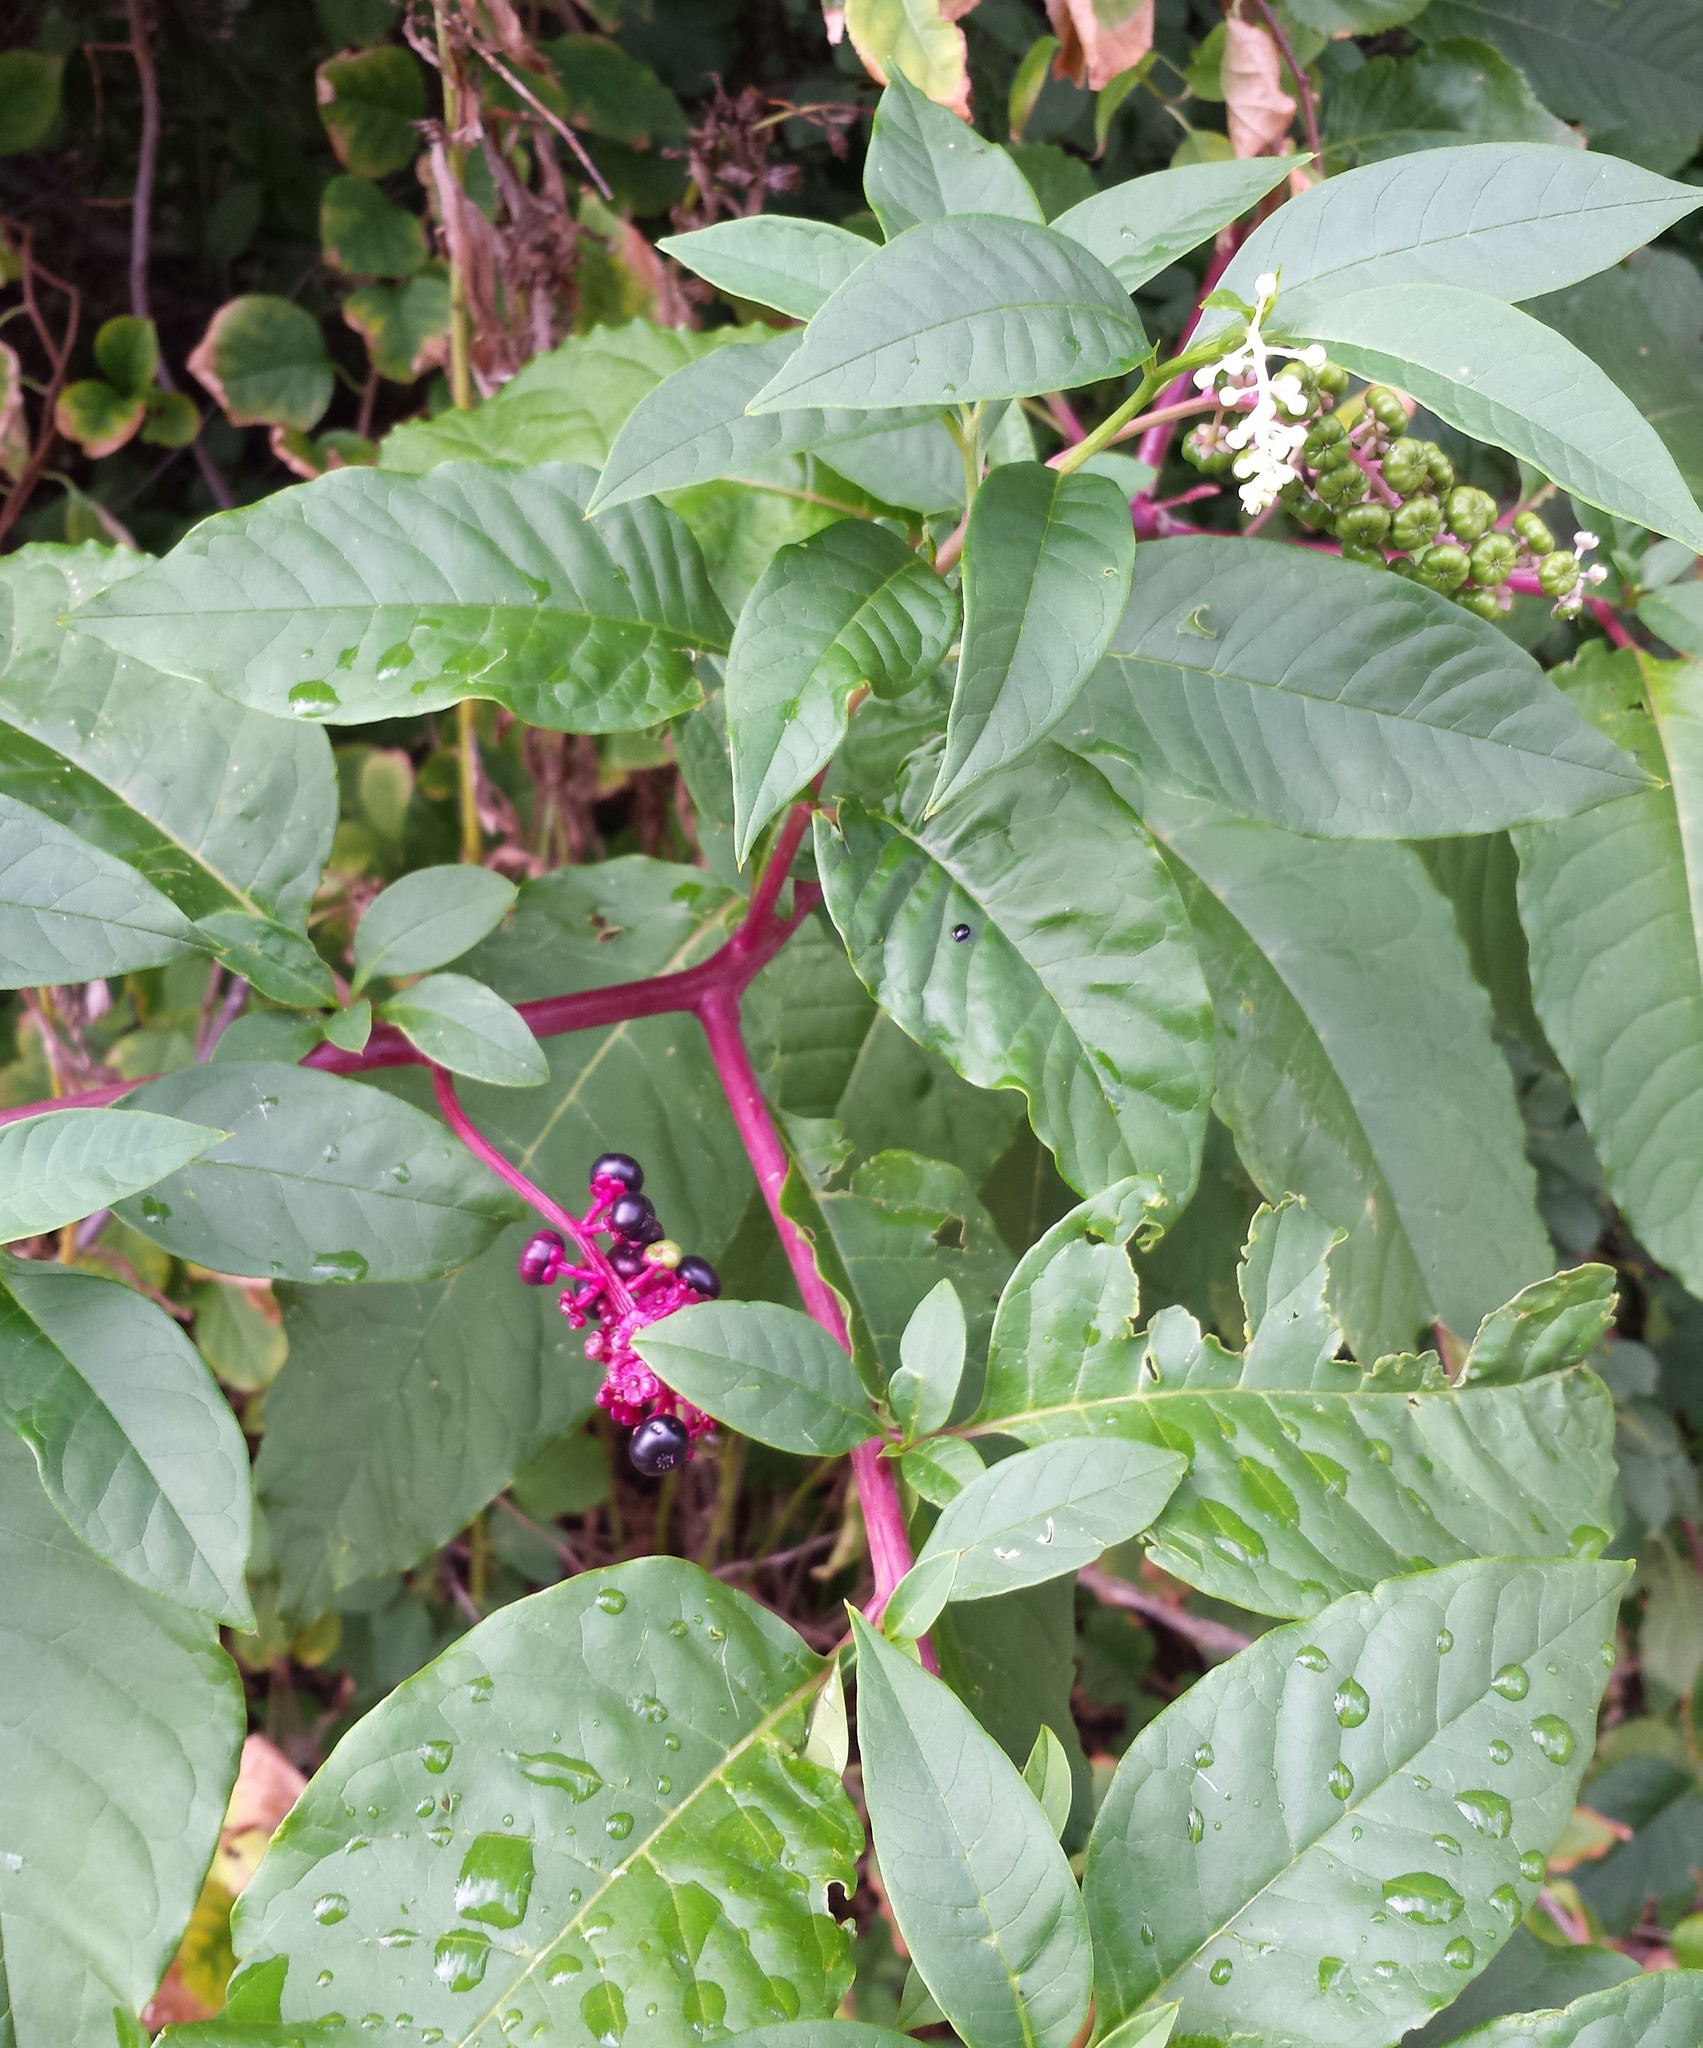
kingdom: Plantae
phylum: Tracheophyta
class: Magnoliopsida
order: Caryophyllales
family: Phytolaccaceae
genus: Phytolacca
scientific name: Phytolacca americana
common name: American pokeweed
